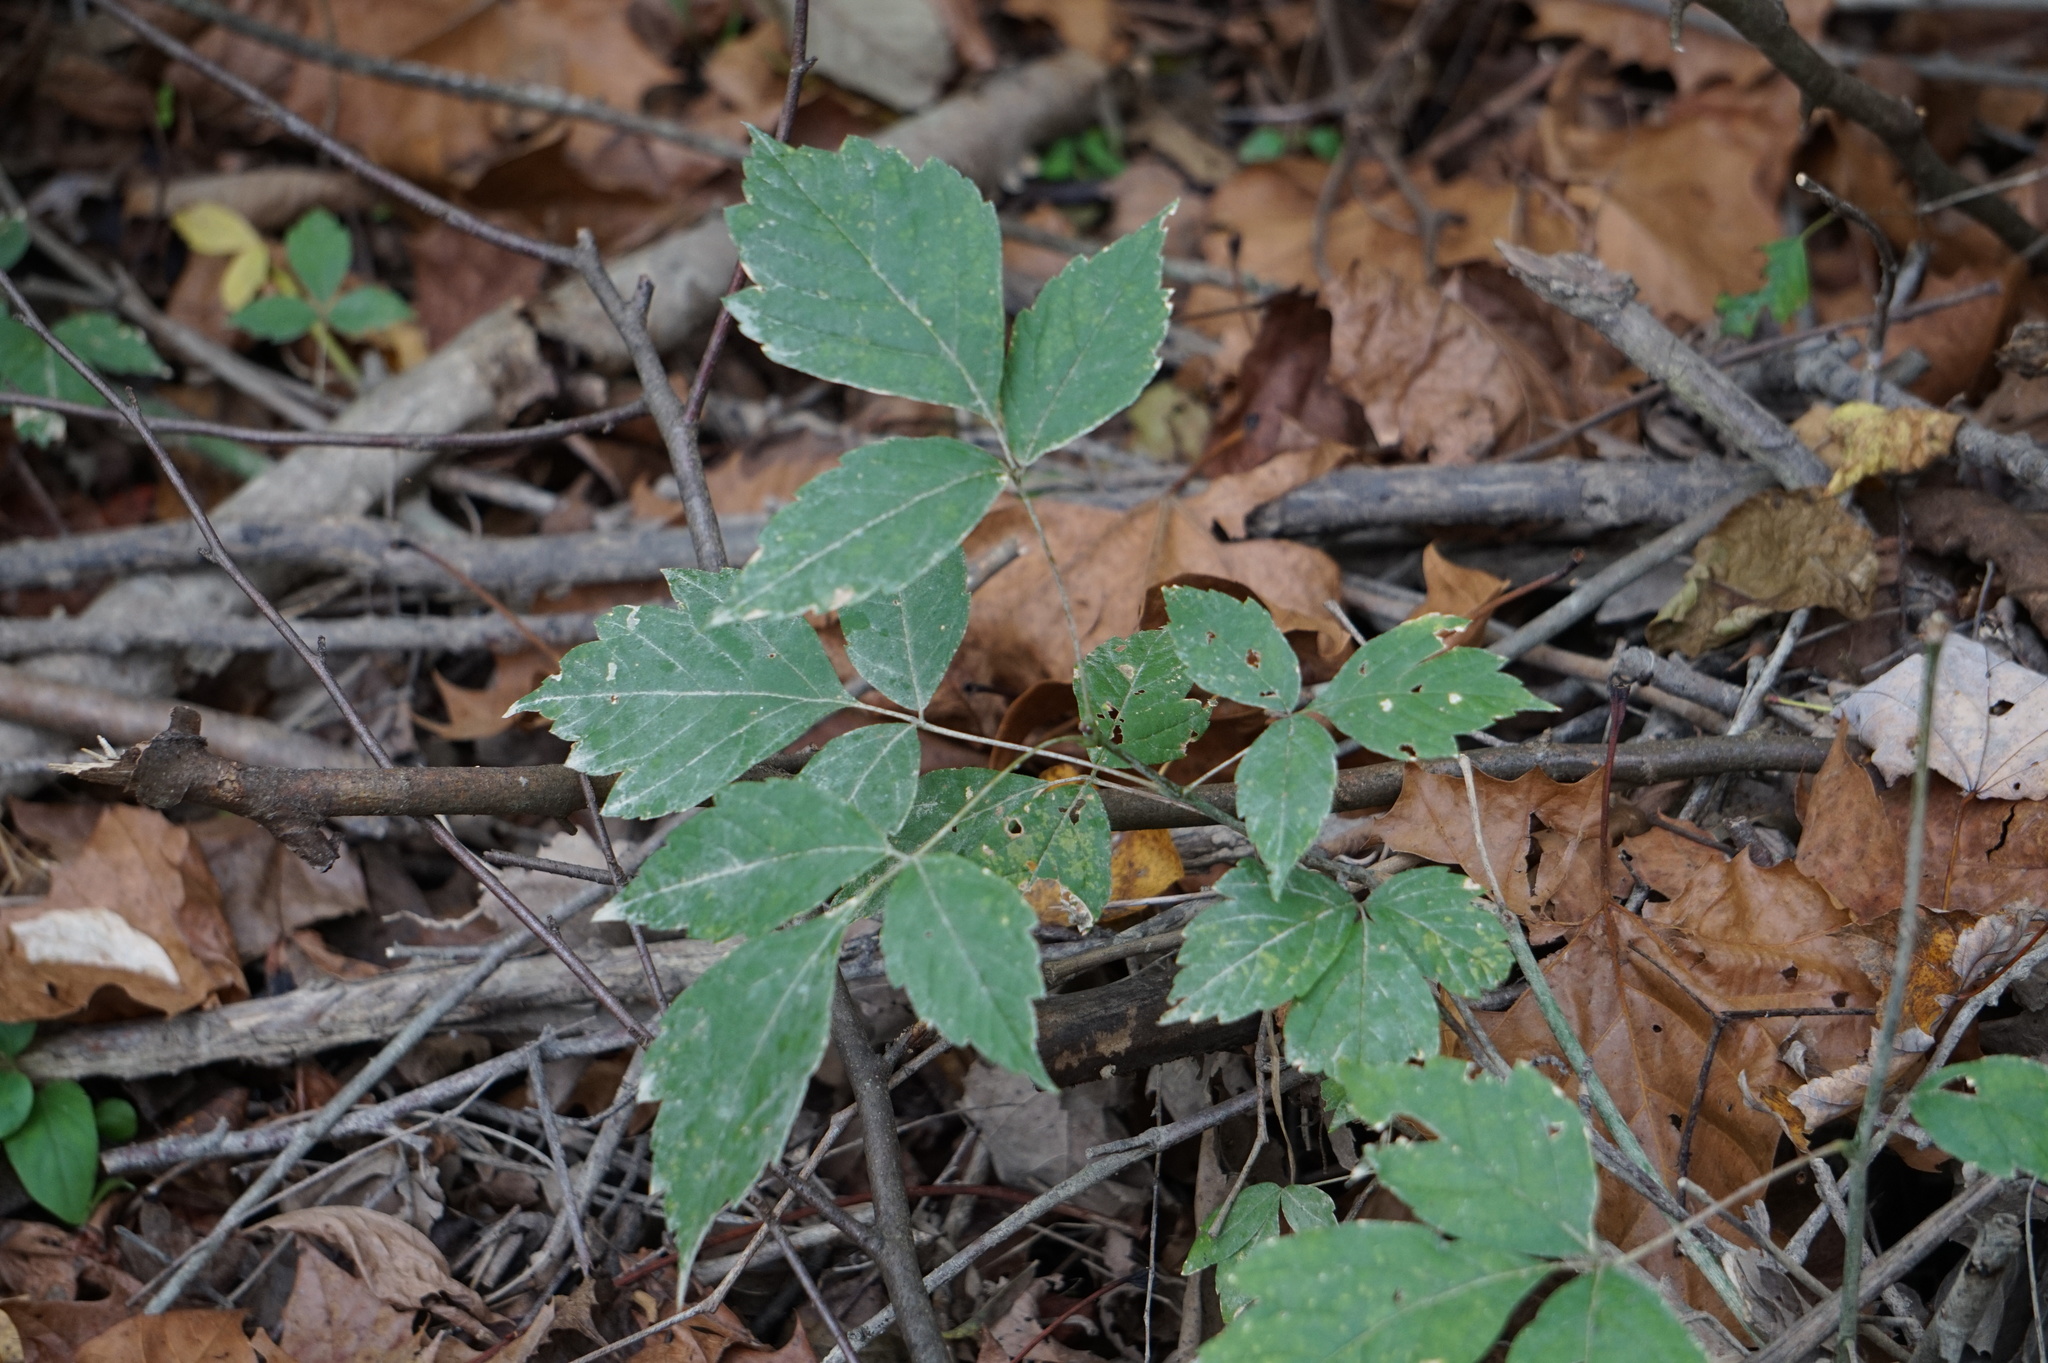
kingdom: Plantae
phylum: Tracheophyta
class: Magnoliopsida
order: Sapindales
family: Sapindaceae
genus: Acer
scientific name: Acer negundo
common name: Ashleaf maple
